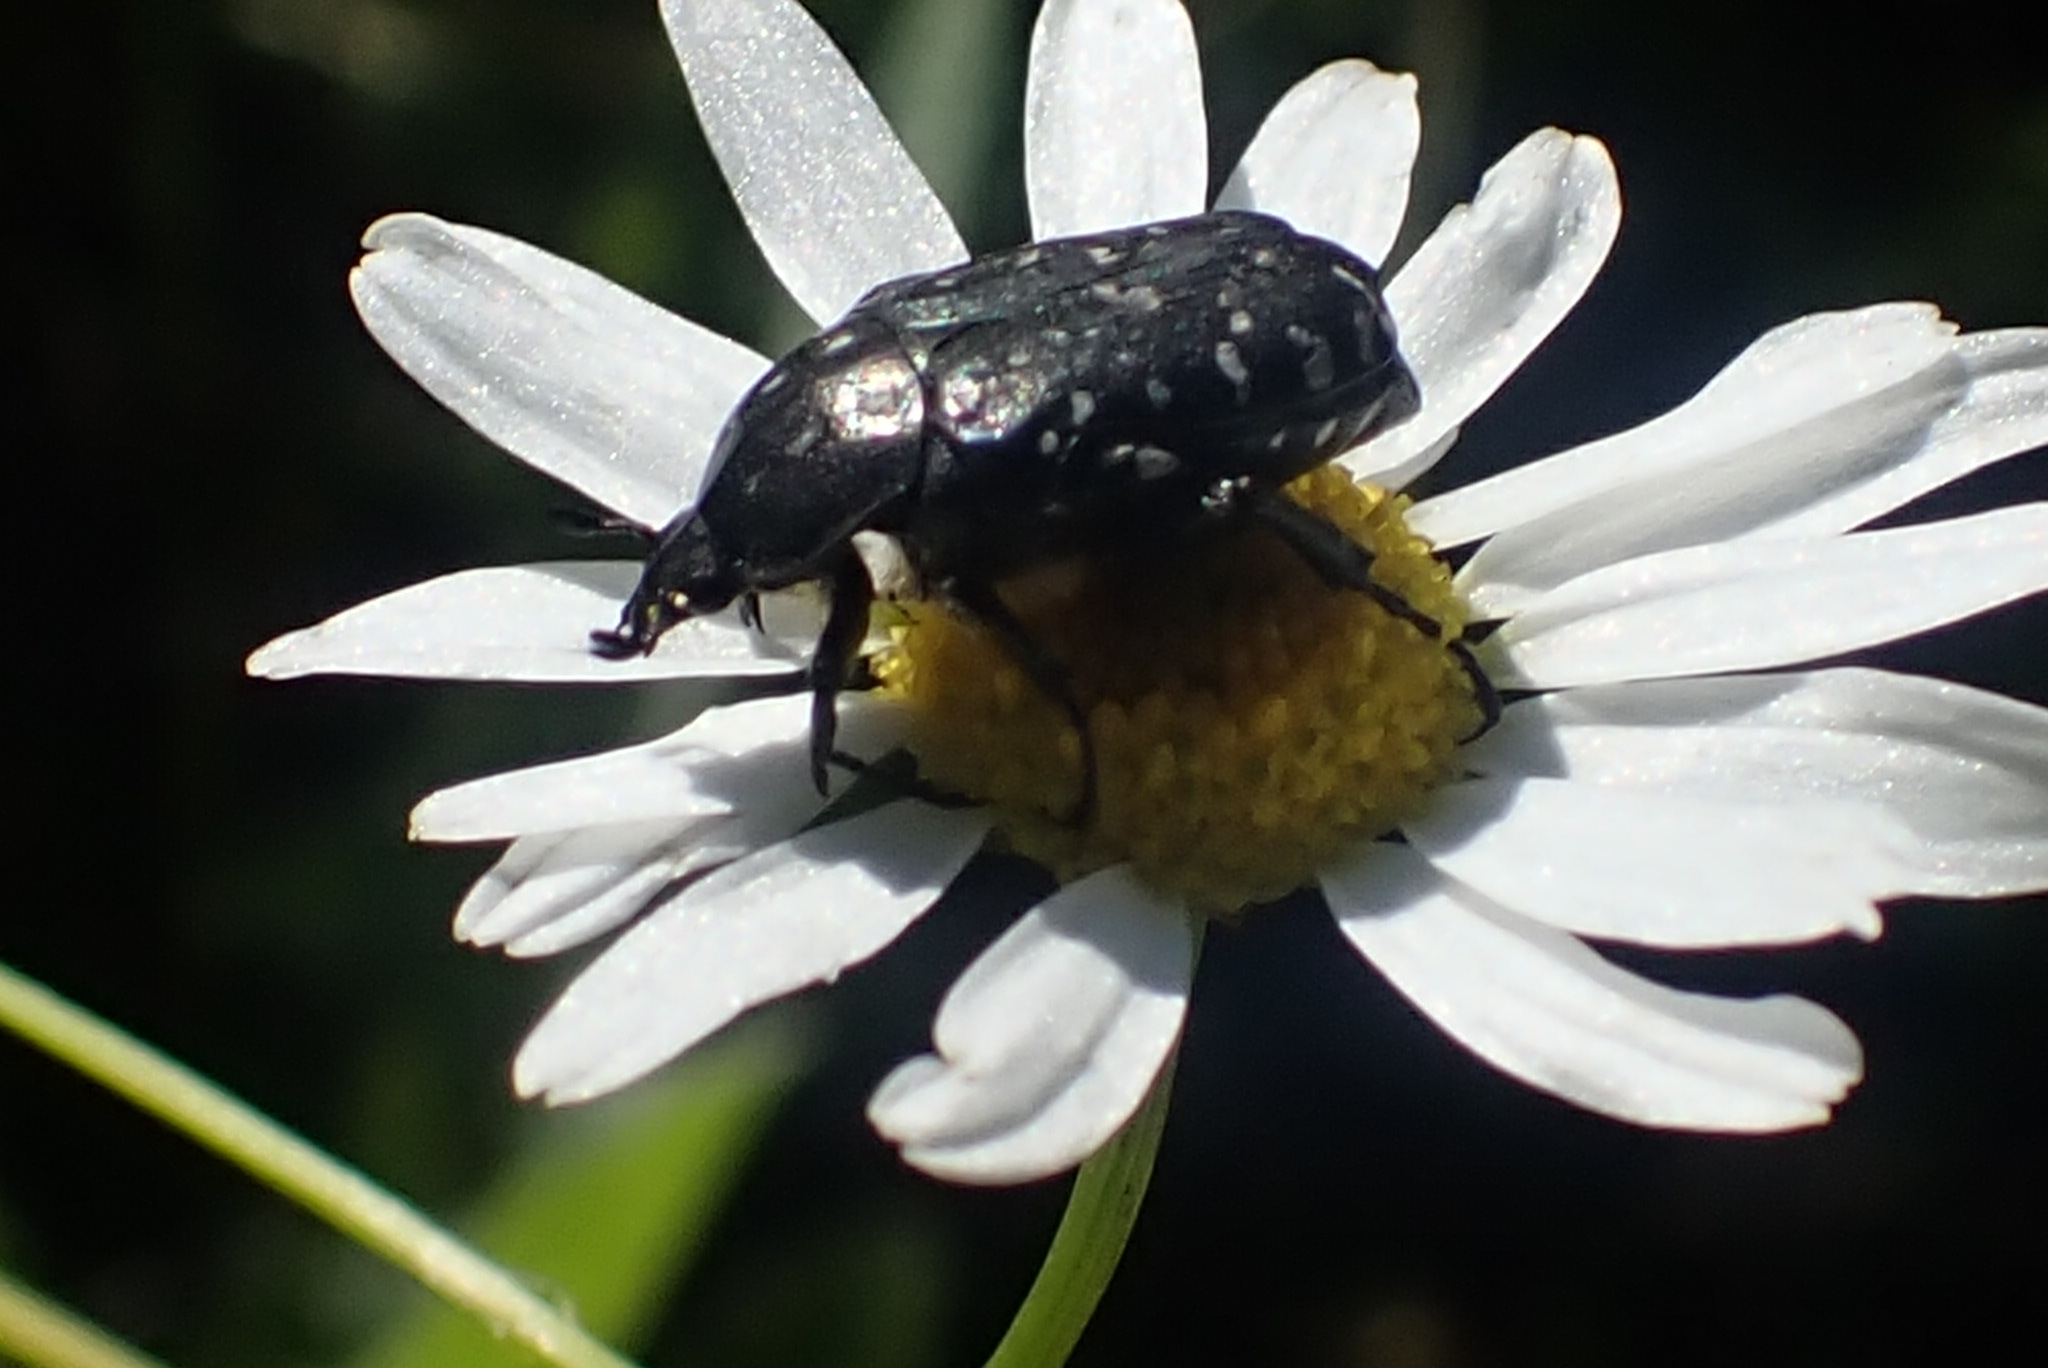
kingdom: Animalia
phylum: Arthropoda
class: Insecta
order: Coleoptera
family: Scarabaeidae
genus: Oxythyrea
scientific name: Oxythyrea funesta
